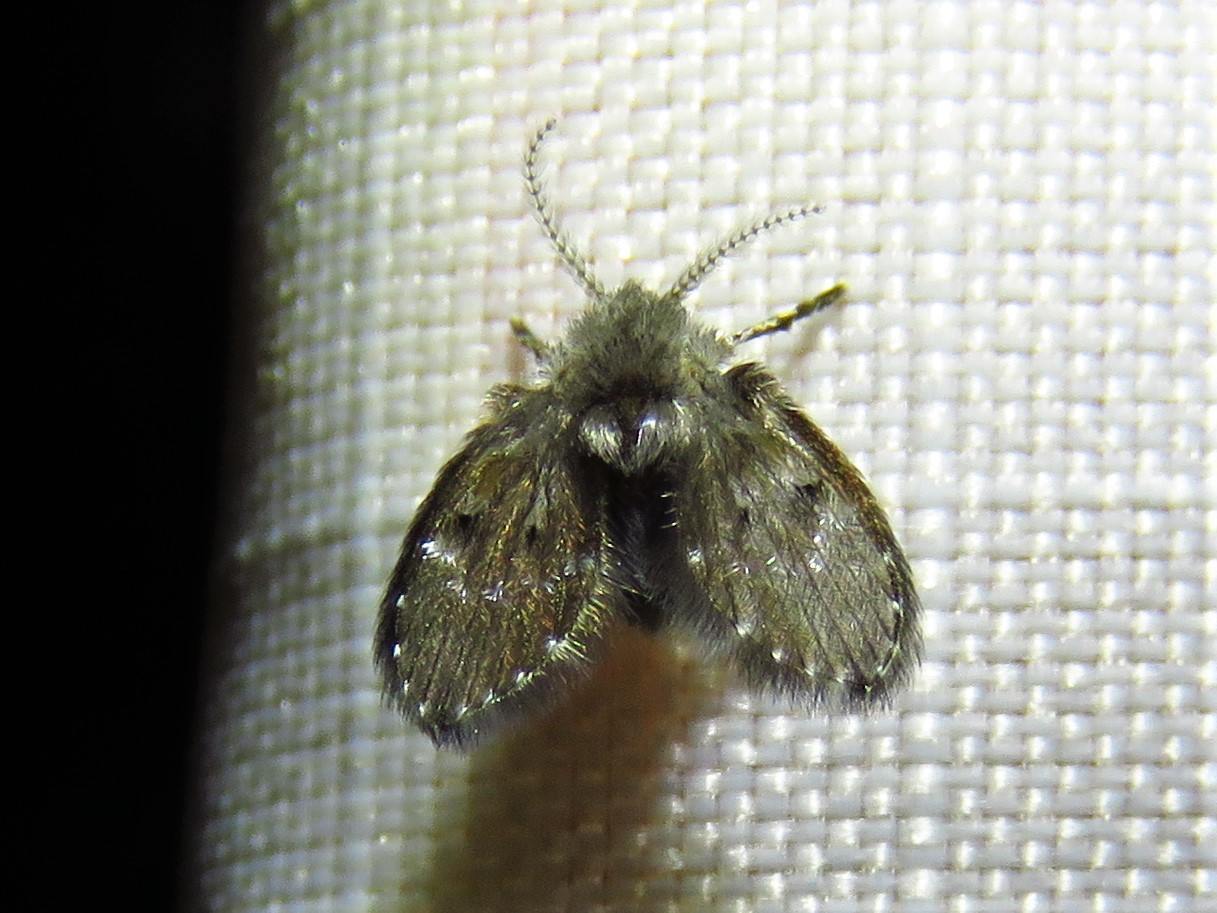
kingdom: Animalia
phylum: Arthropoda
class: Insecta
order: Diptera
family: Psychodidae
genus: Clogmia
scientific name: Clogmia albipunctatus
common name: White-spotted moth fly
